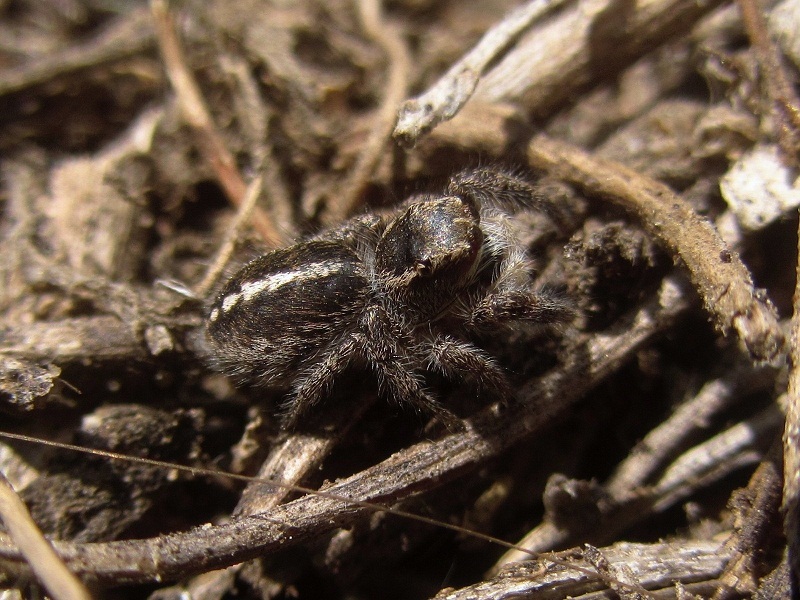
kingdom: Animalia
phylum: Arthropoda
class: Arachnida
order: Araneae
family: Salticidae
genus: Pellenes
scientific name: Pellenes seriatus
